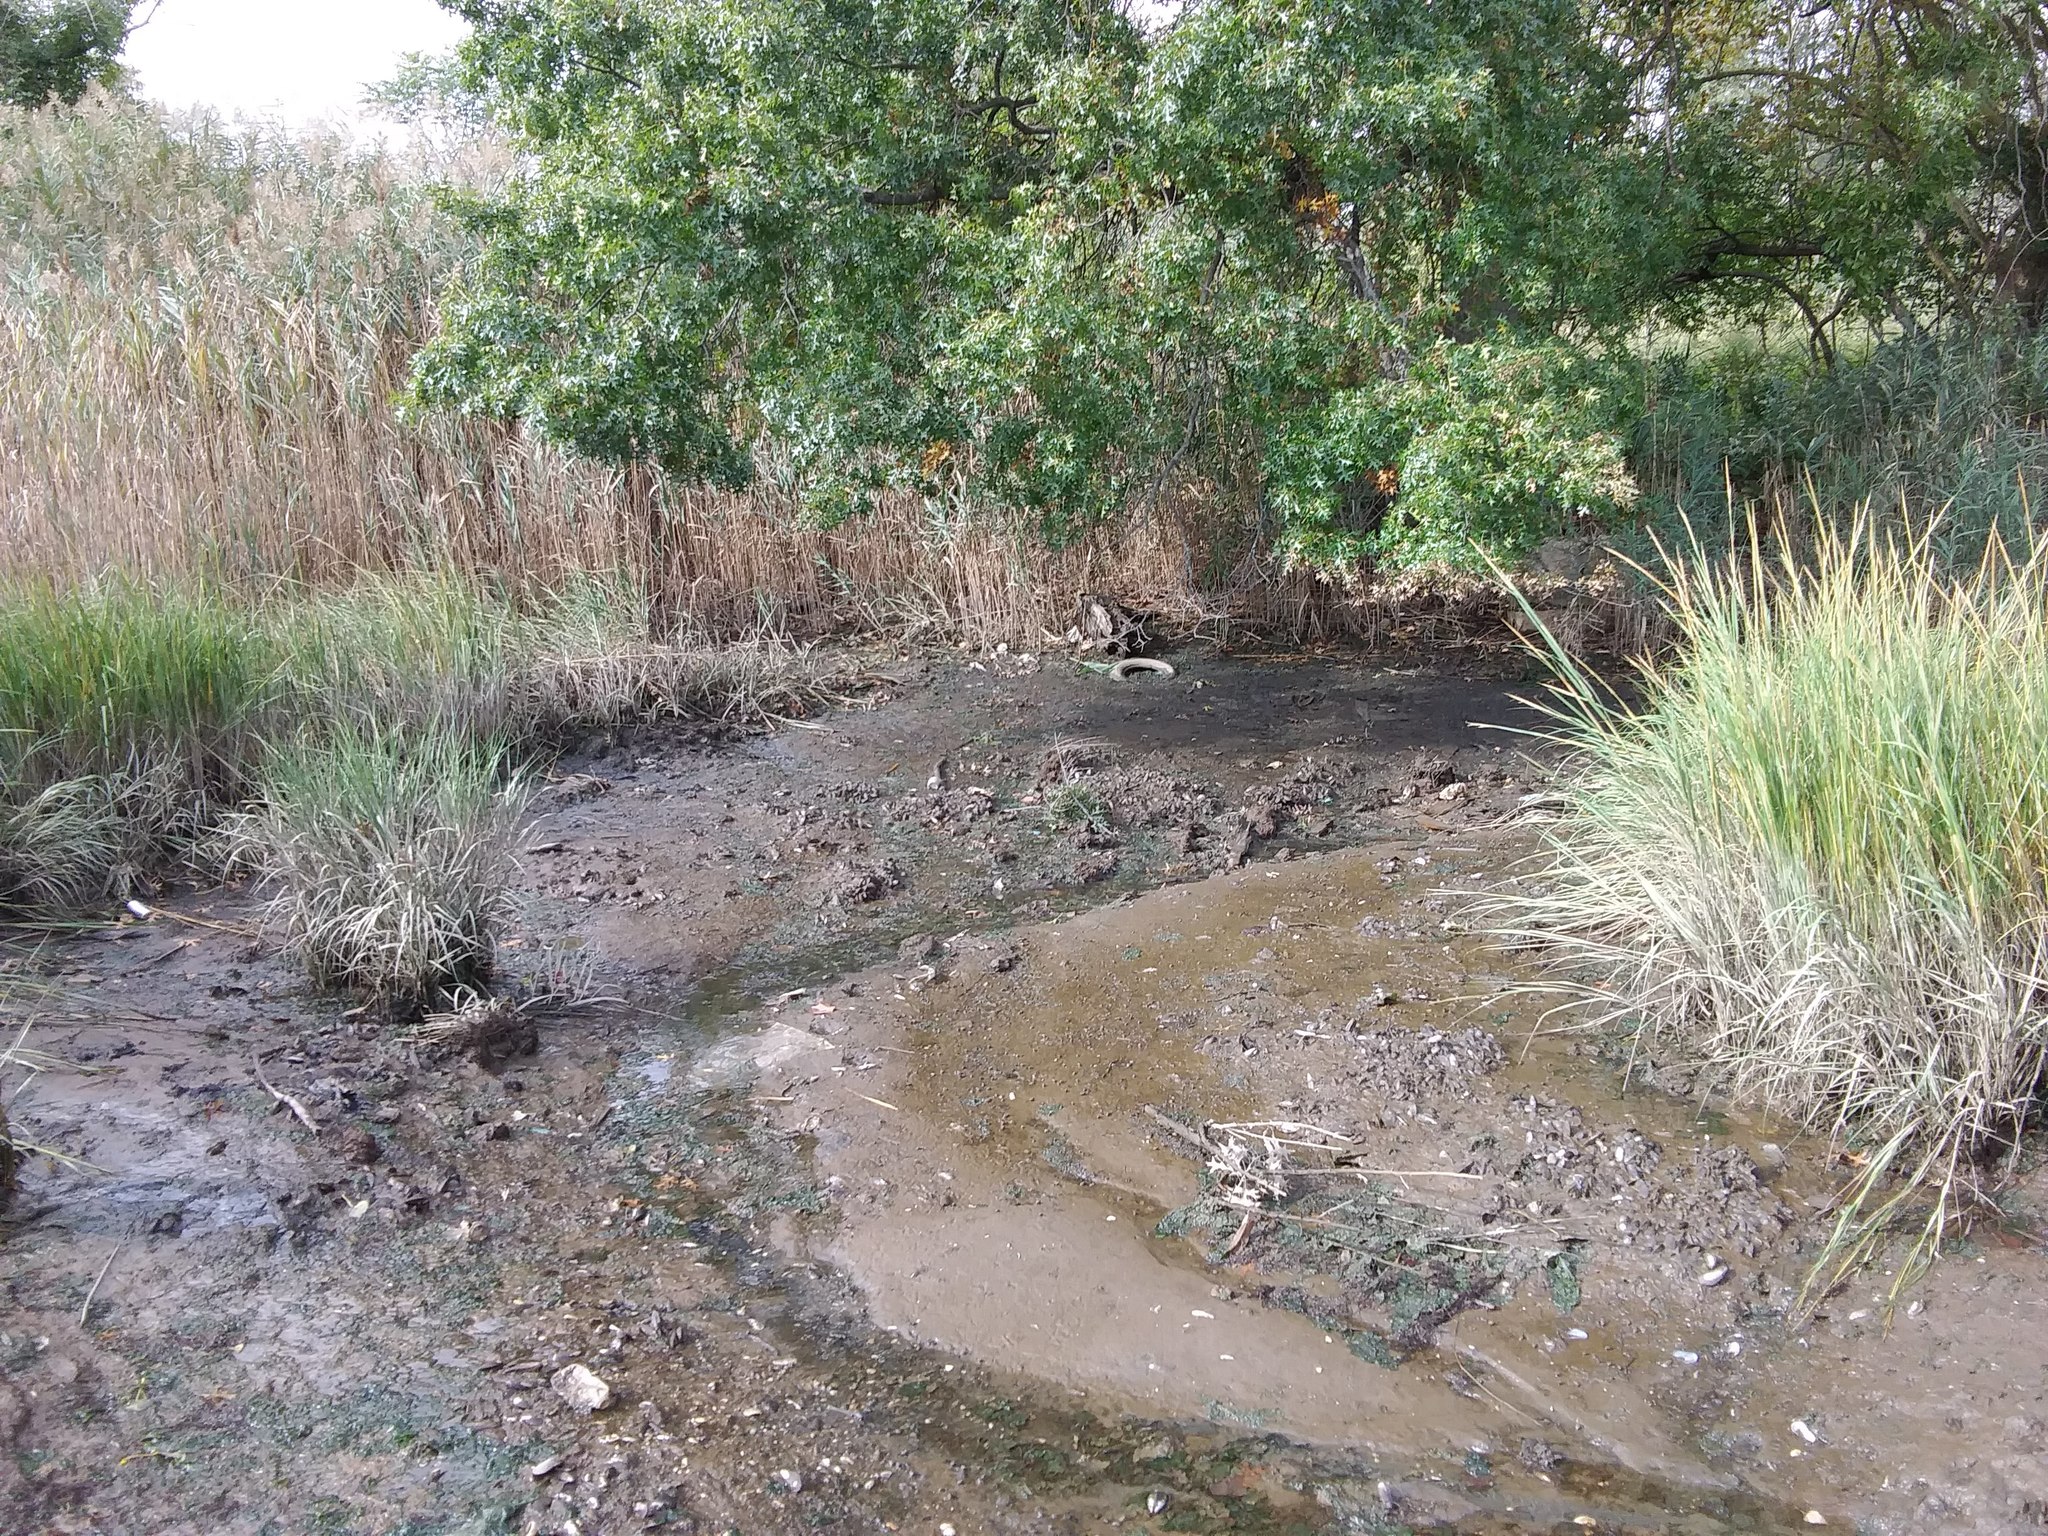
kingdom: Animalia
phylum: Mollusca
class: Bivalvia
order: Mytilida
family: Mytilidae
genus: Geukensia
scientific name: Geukensia demissa
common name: Ribbed mussel
